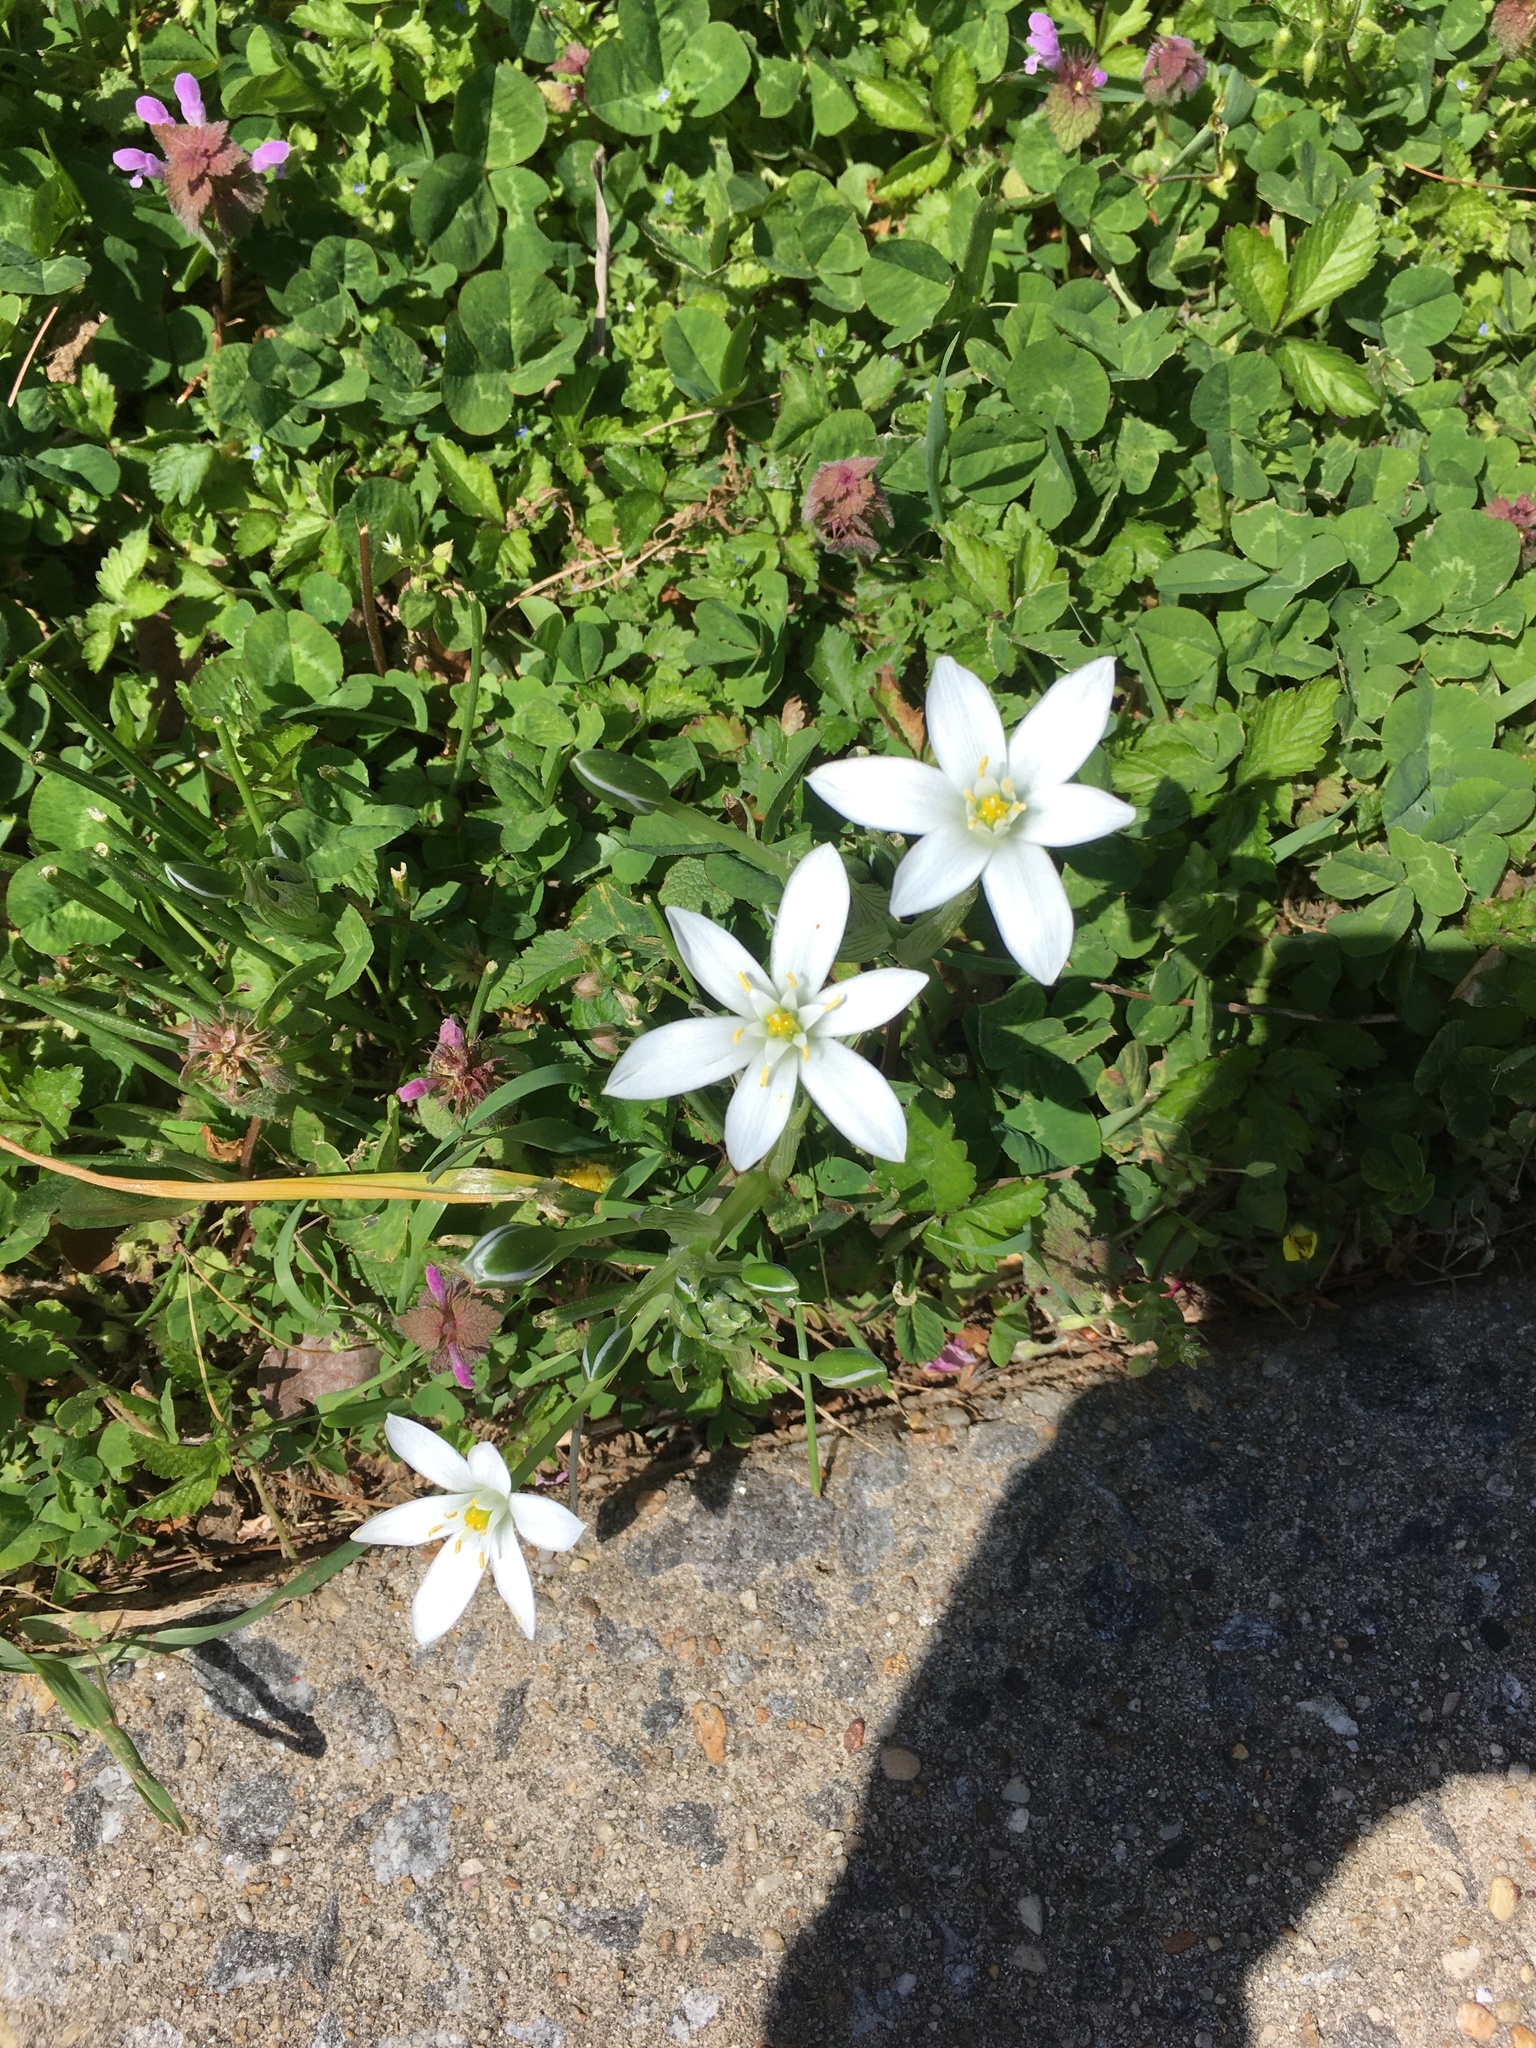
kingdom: Plantae
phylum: Tracheophyta
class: Liliopsida
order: Asparagales
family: Asparagaceae
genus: Ornithogalum
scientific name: Ornithogalum umbellatum
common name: Garden star-of-bethlehem
